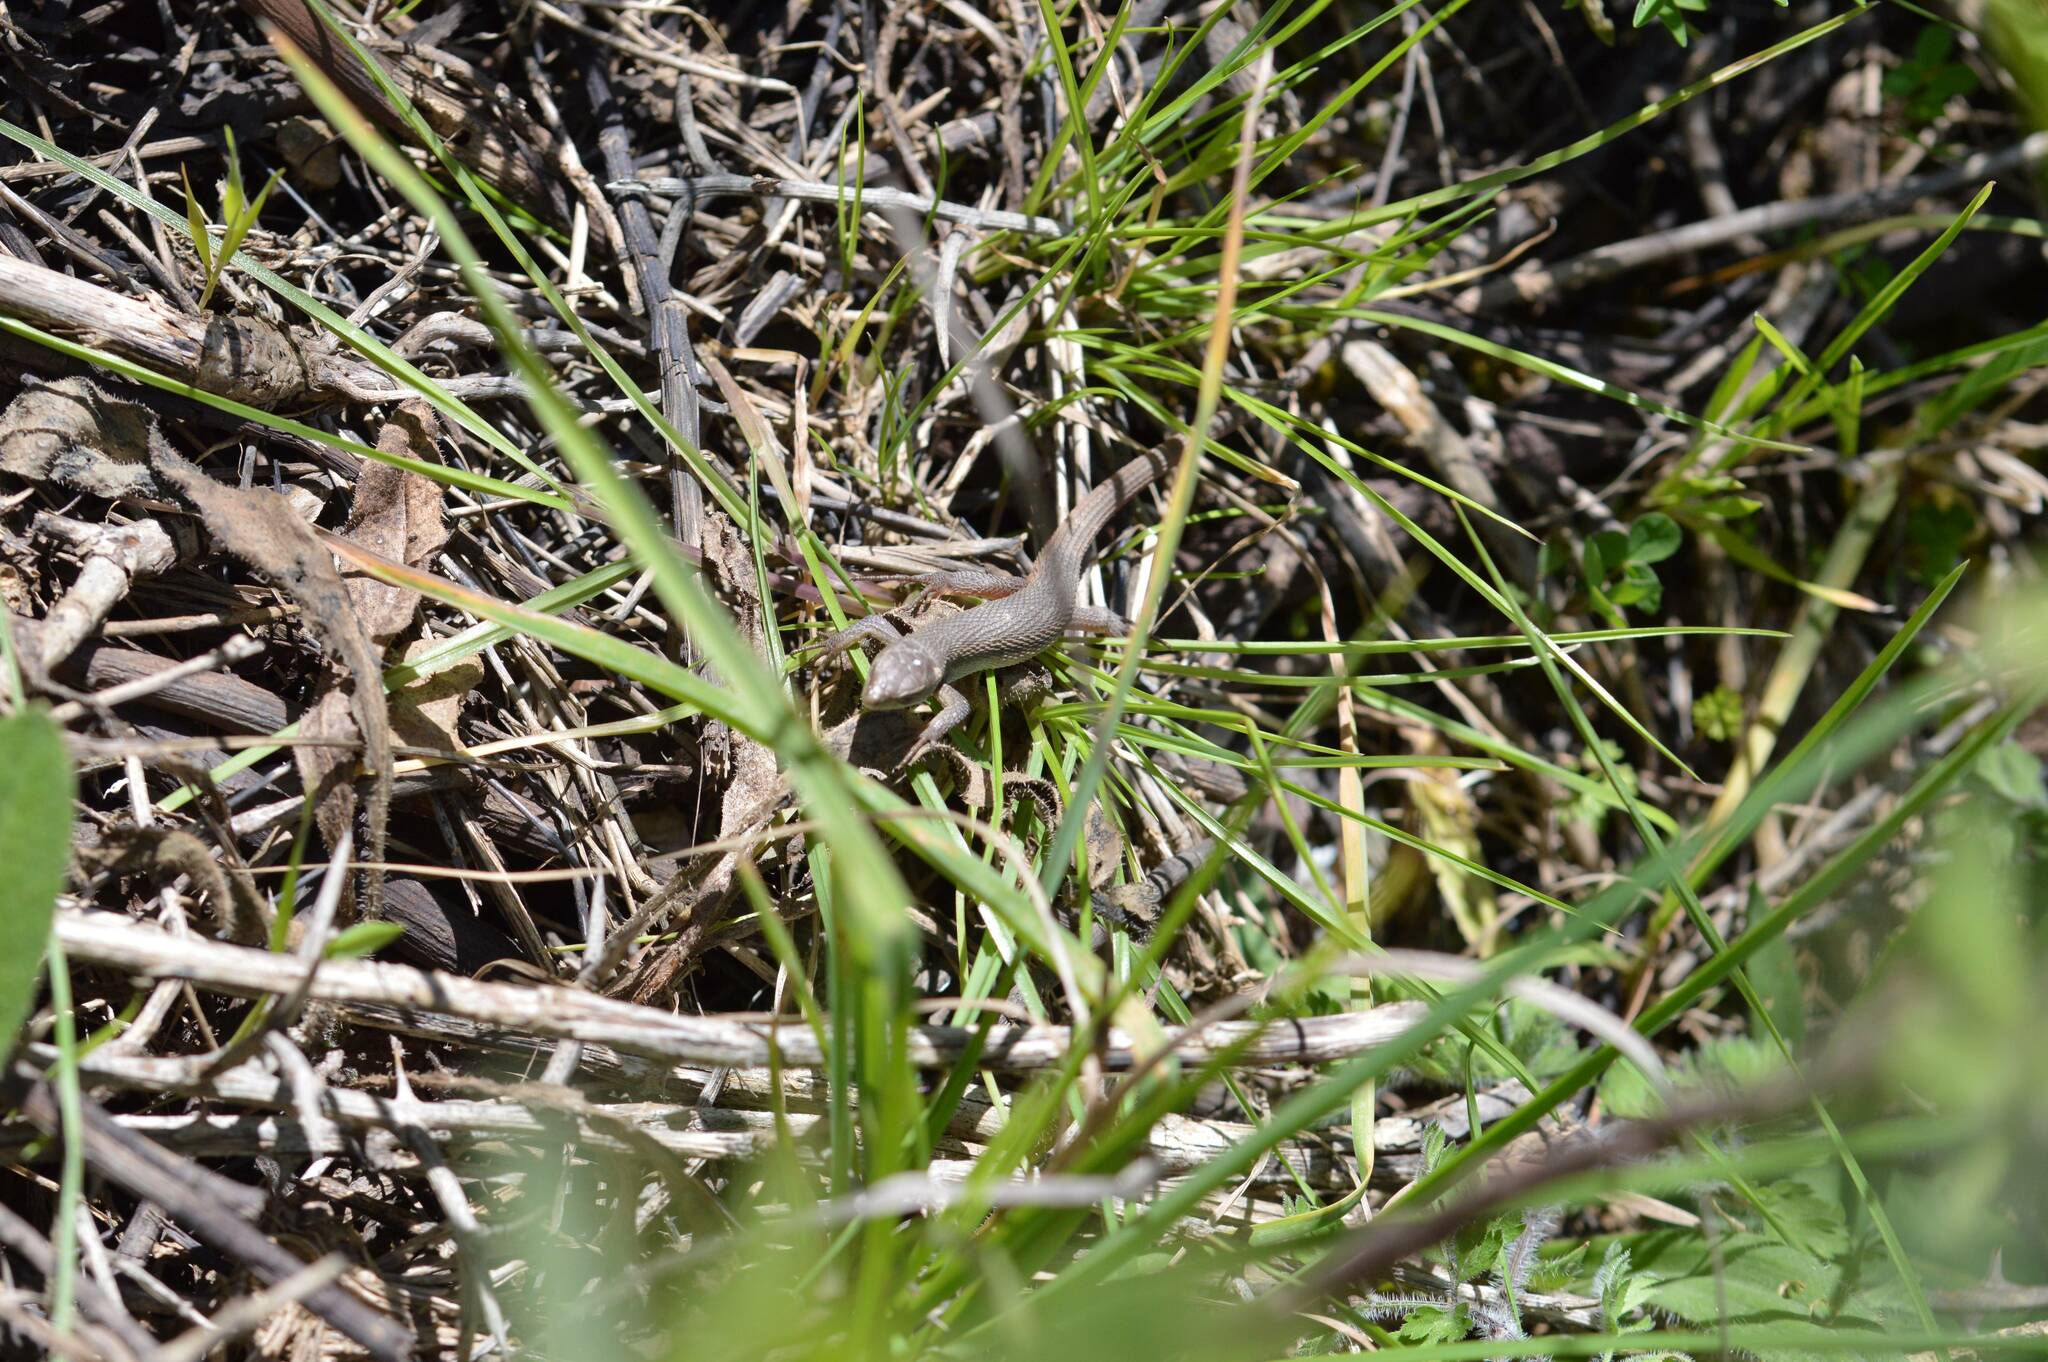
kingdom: Animalia
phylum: Chordata
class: Squamata
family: Lacertidae
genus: Psammodromus
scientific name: Psammodromus algirus
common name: Algerian psammodromus
